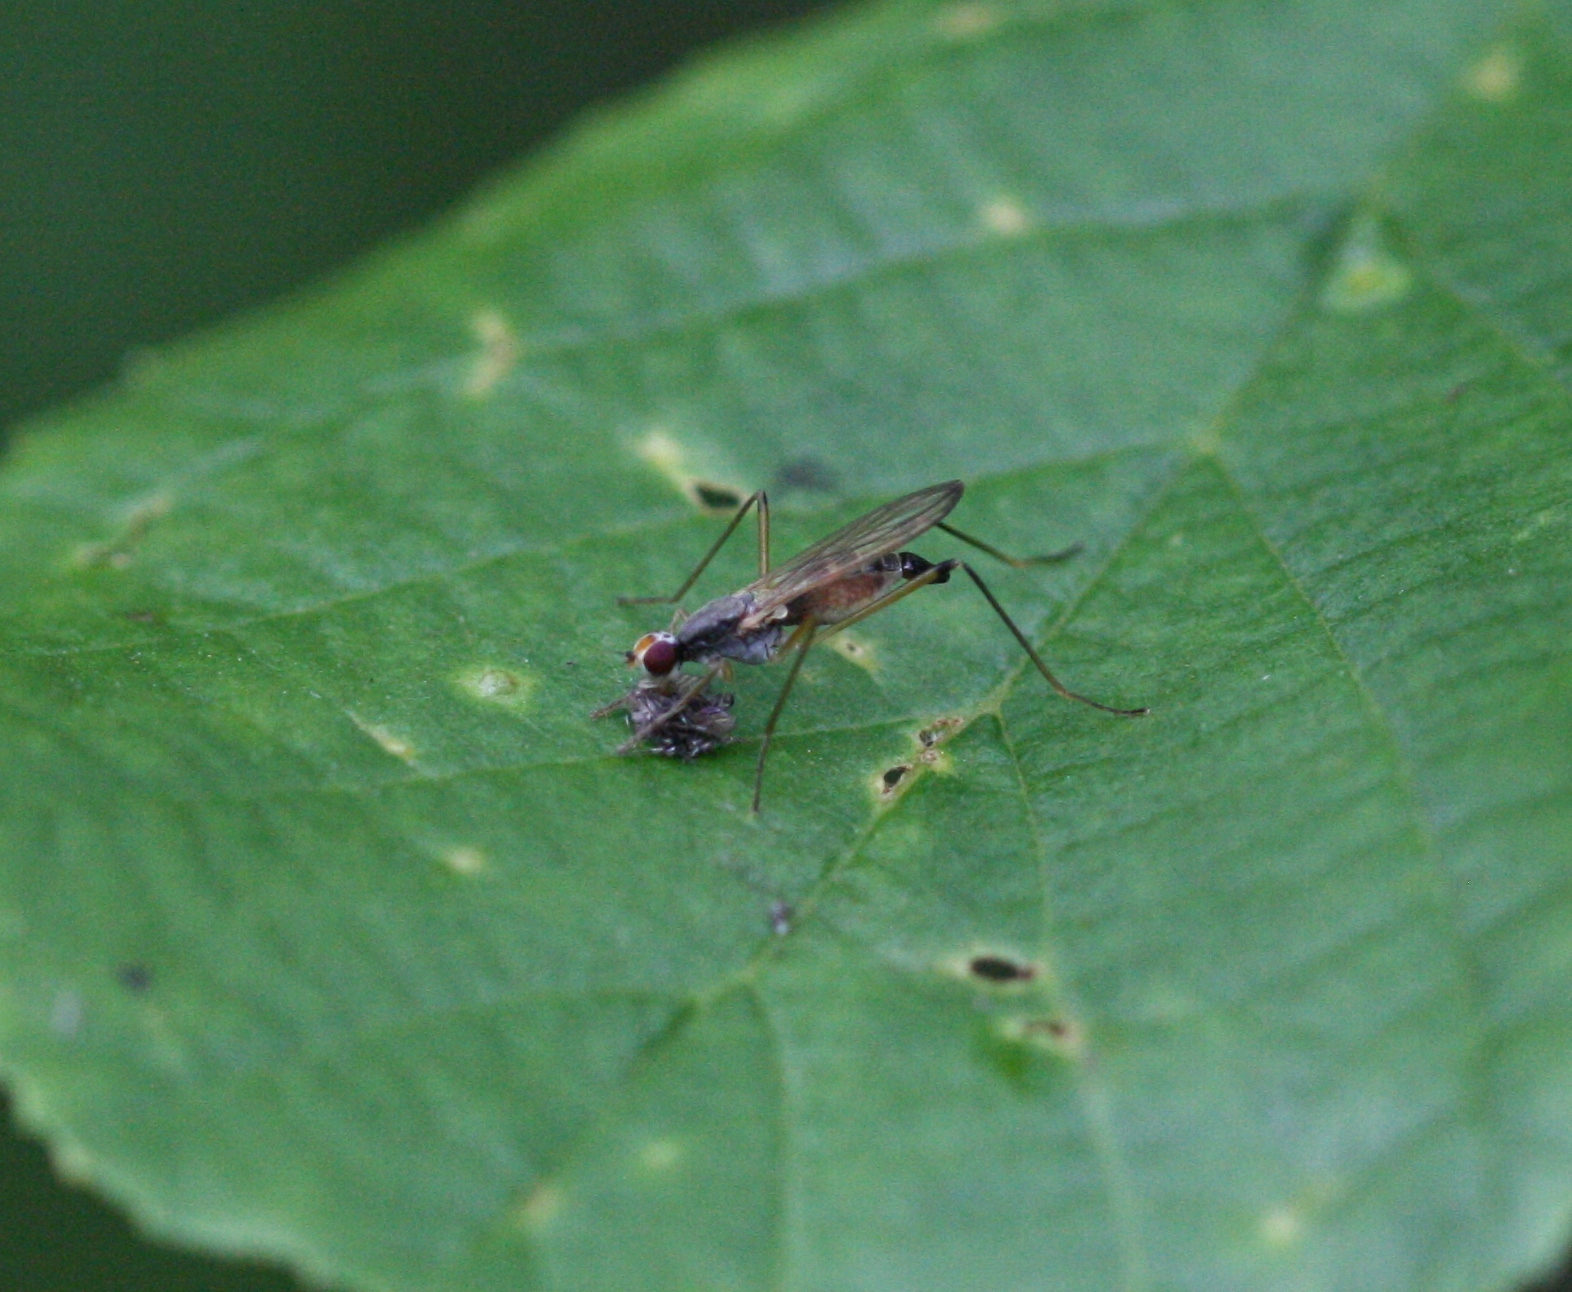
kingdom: Animalia
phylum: Arthropoda
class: Insecta
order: Diptera
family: Micropezidae
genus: Compsobata
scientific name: Compsobata cibaria
